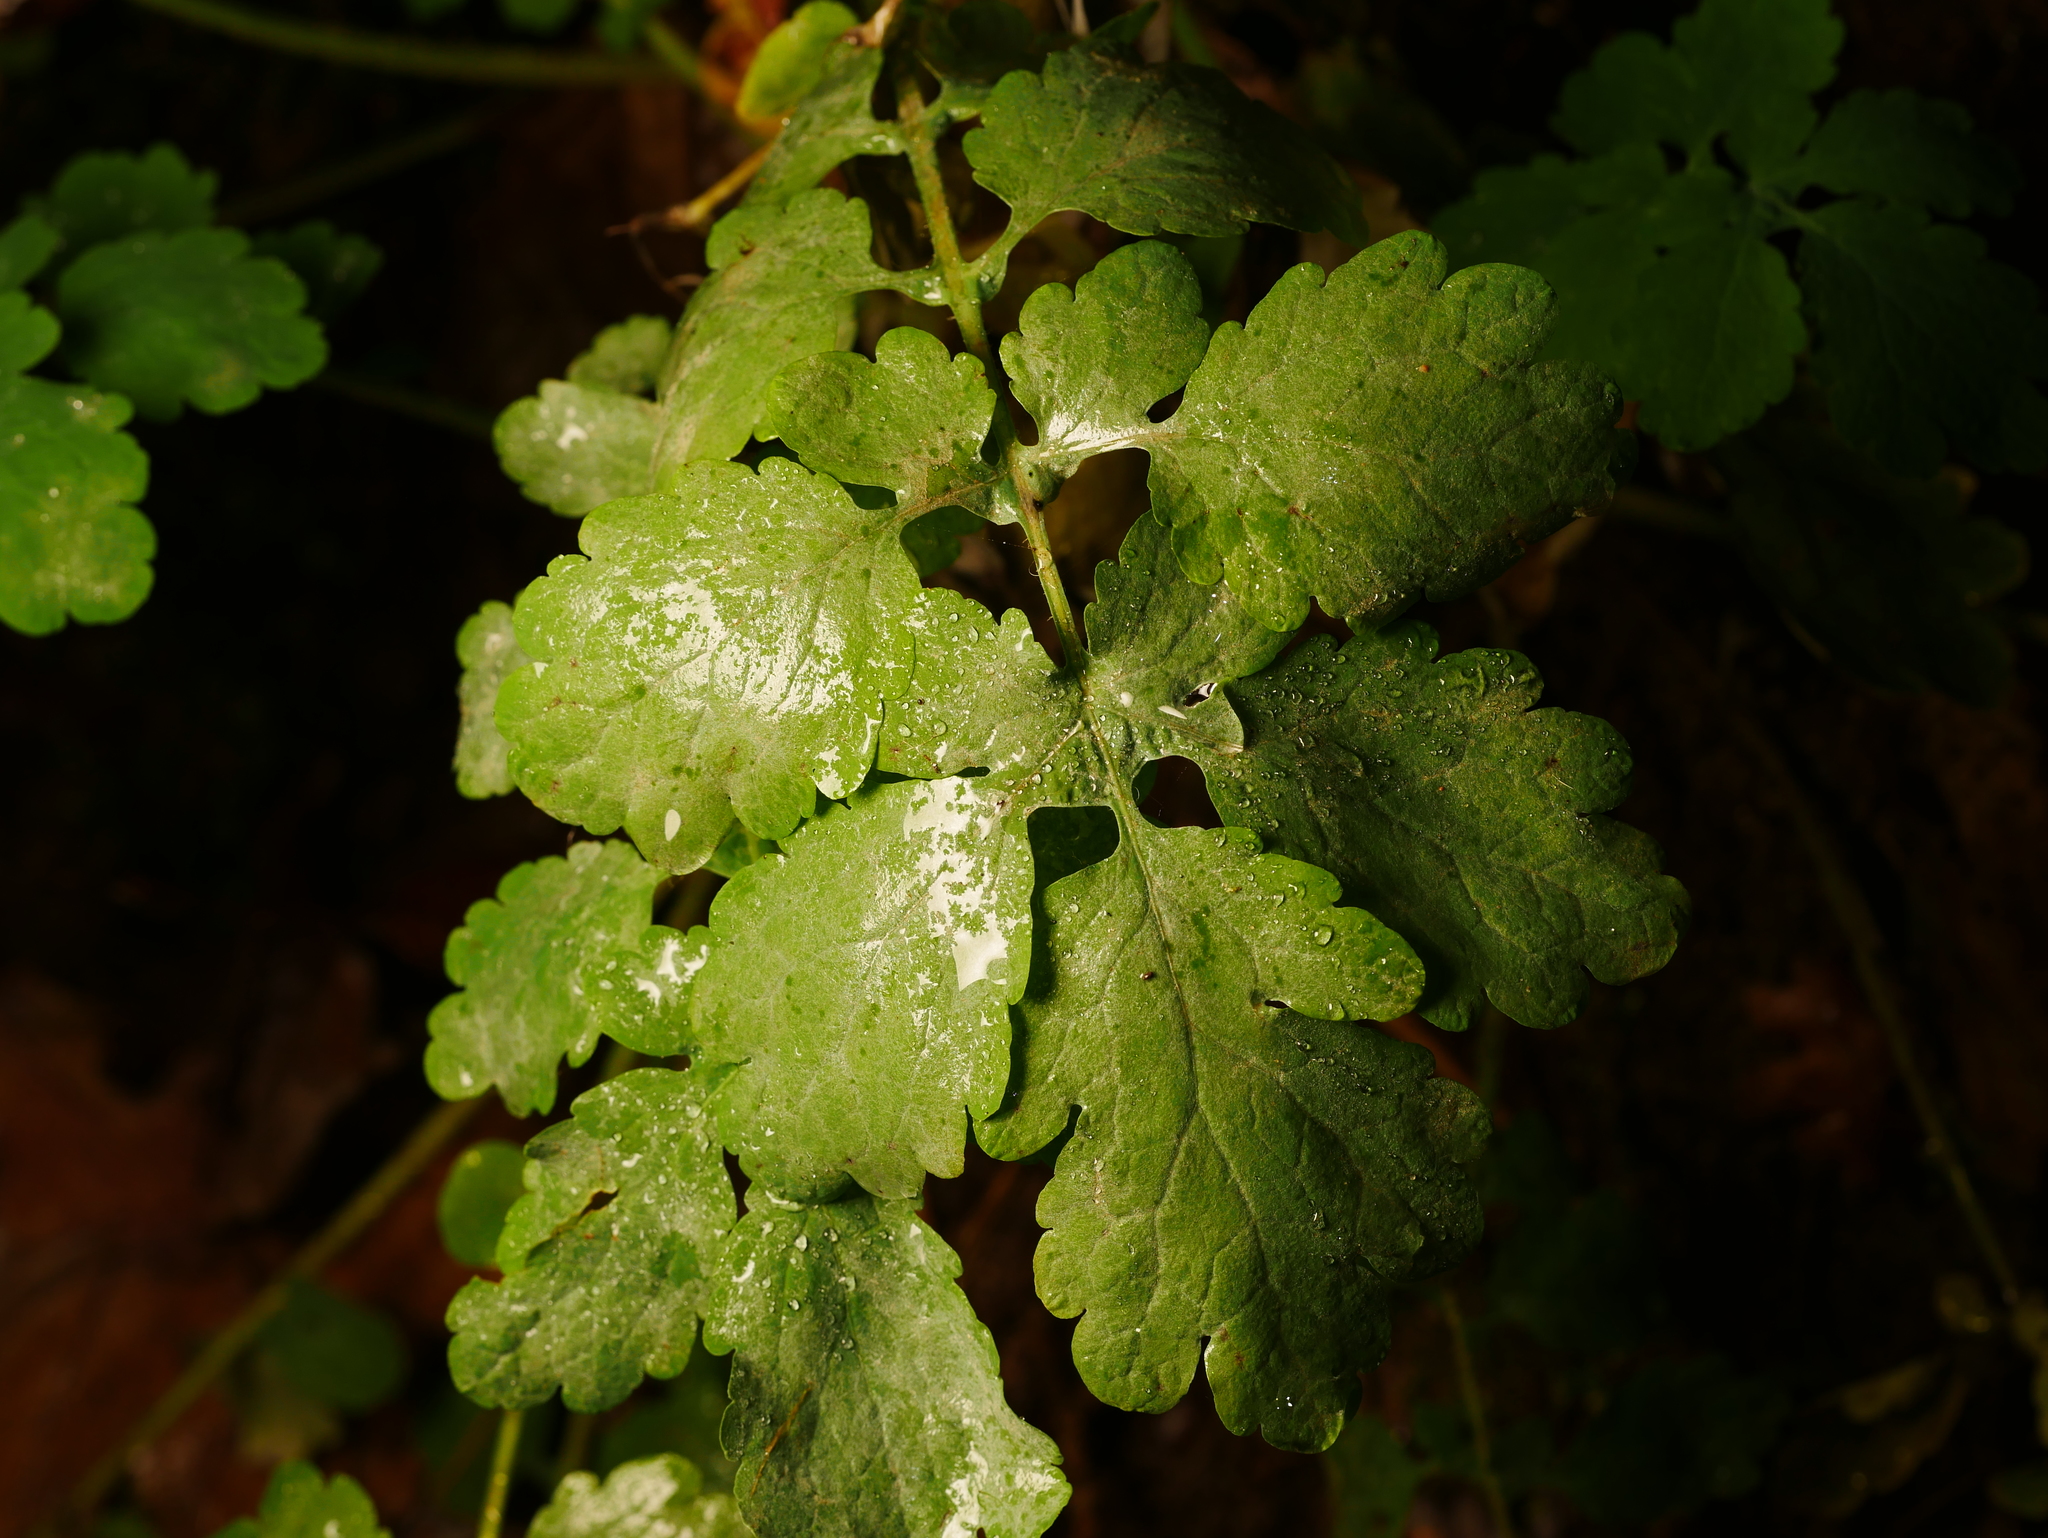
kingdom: Plantae
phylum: Tracheophyta
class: Magnoliopsida
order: Ranunculales
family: Papaveraceae
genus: Chelidonium
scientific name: Chelidonium majus
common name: Greater celandine
